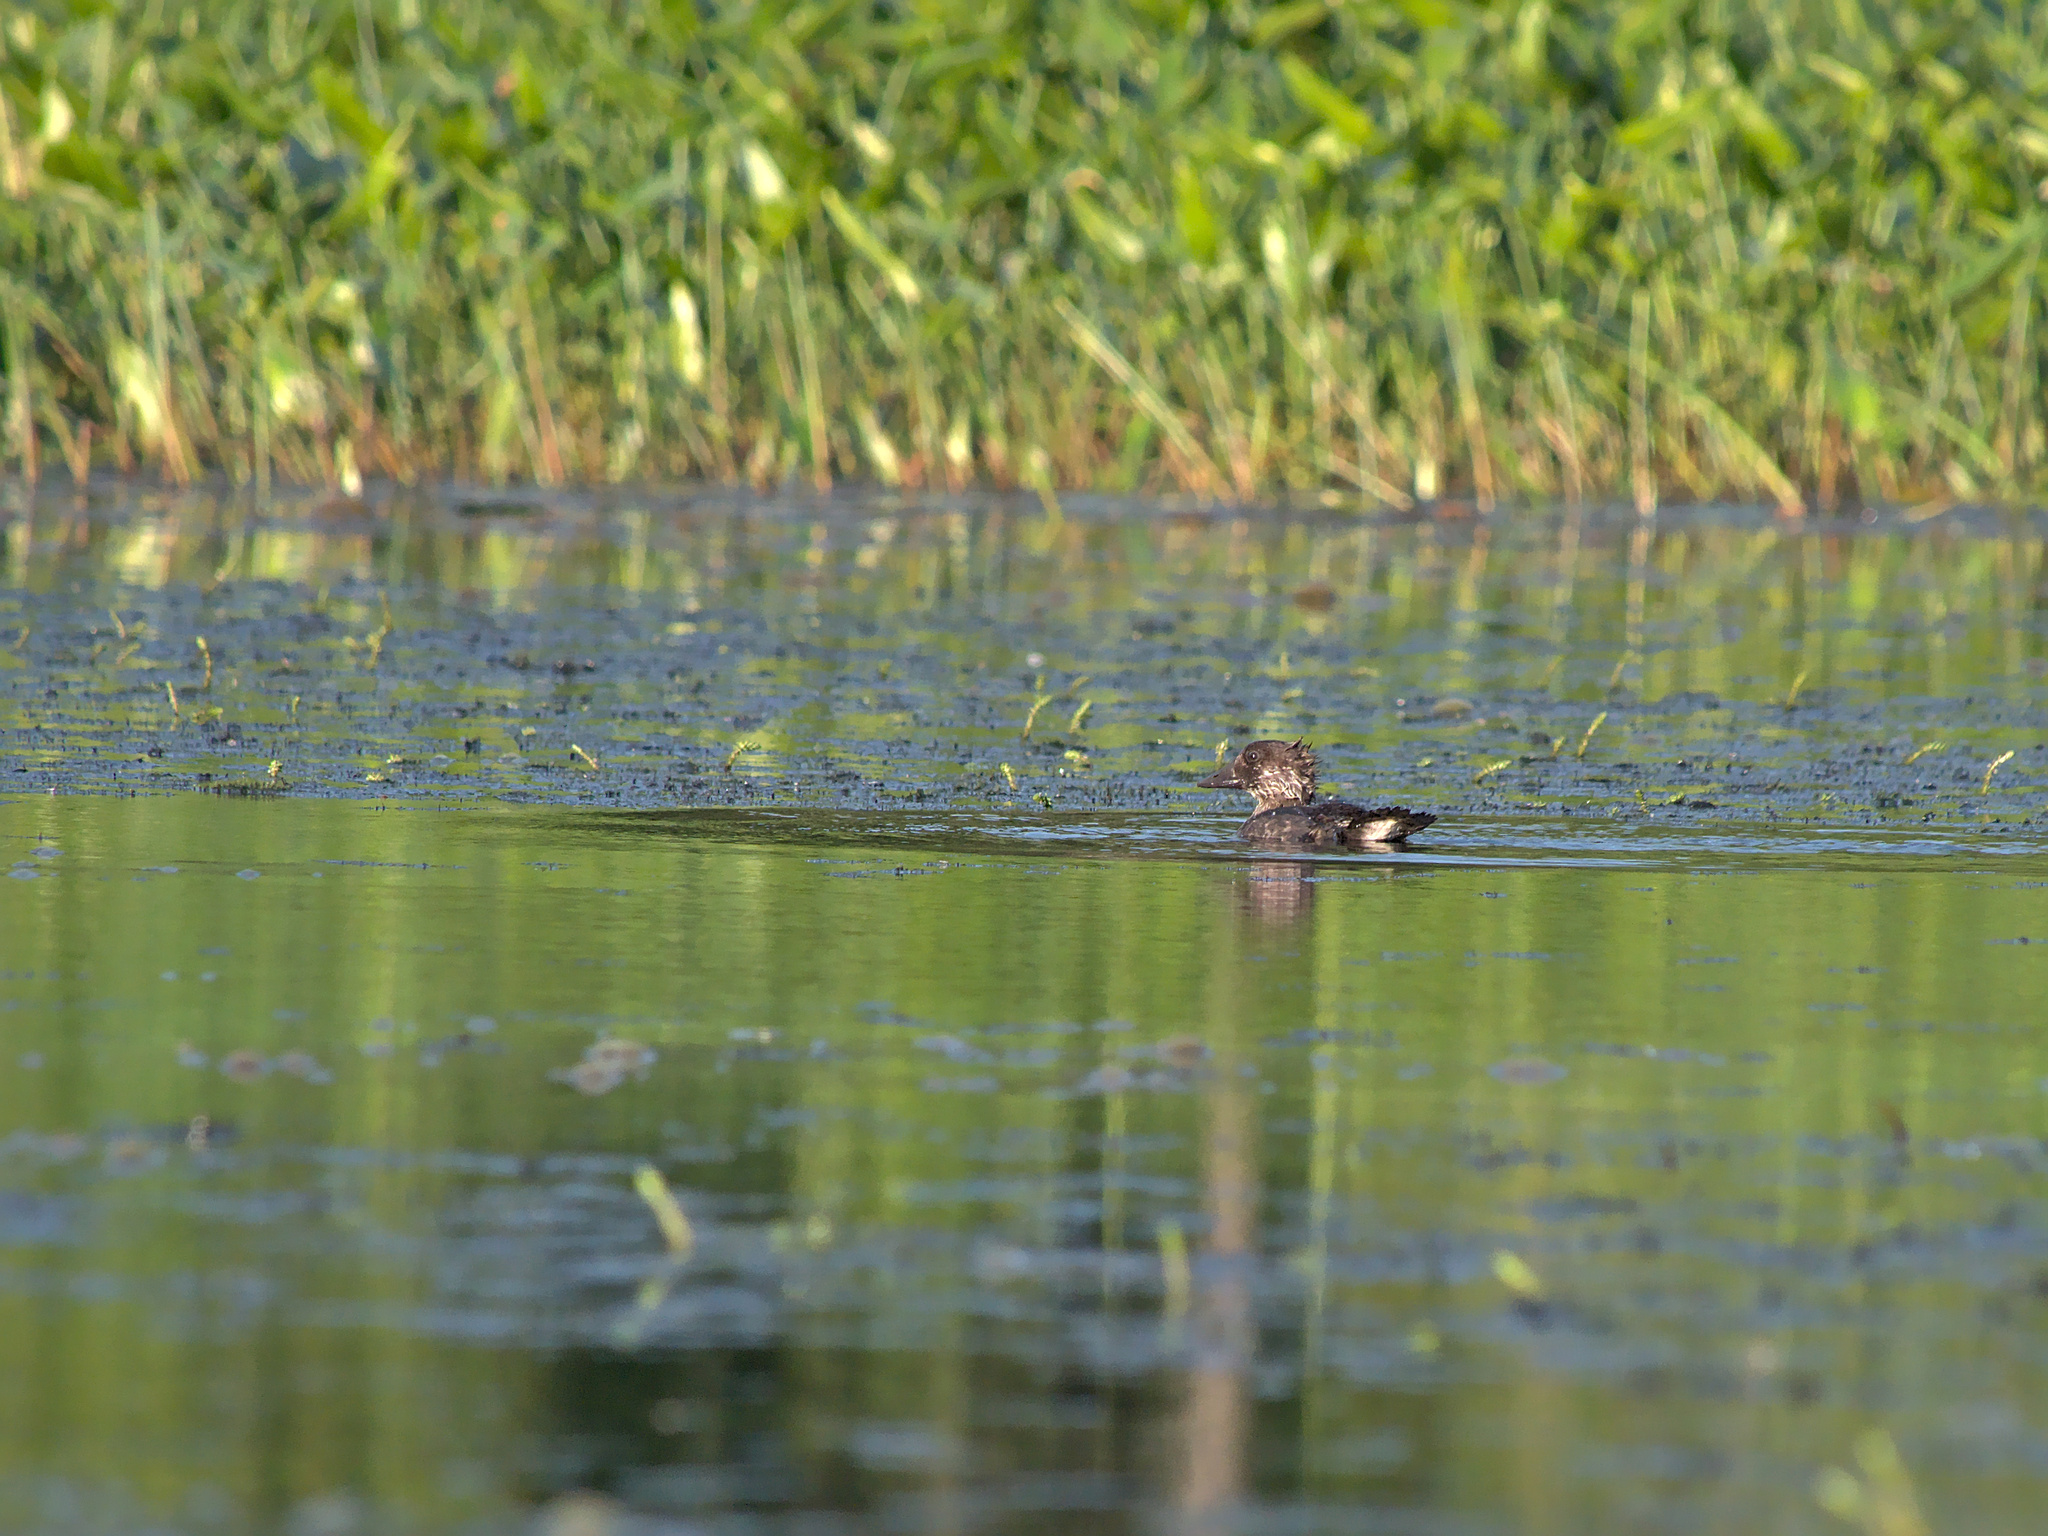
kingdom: Animalia
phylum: Chordata
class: Aves
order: Anseriformes
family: Anatidae
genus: Bucephala
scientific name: Bucephala clangula
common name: Common goldeneye
